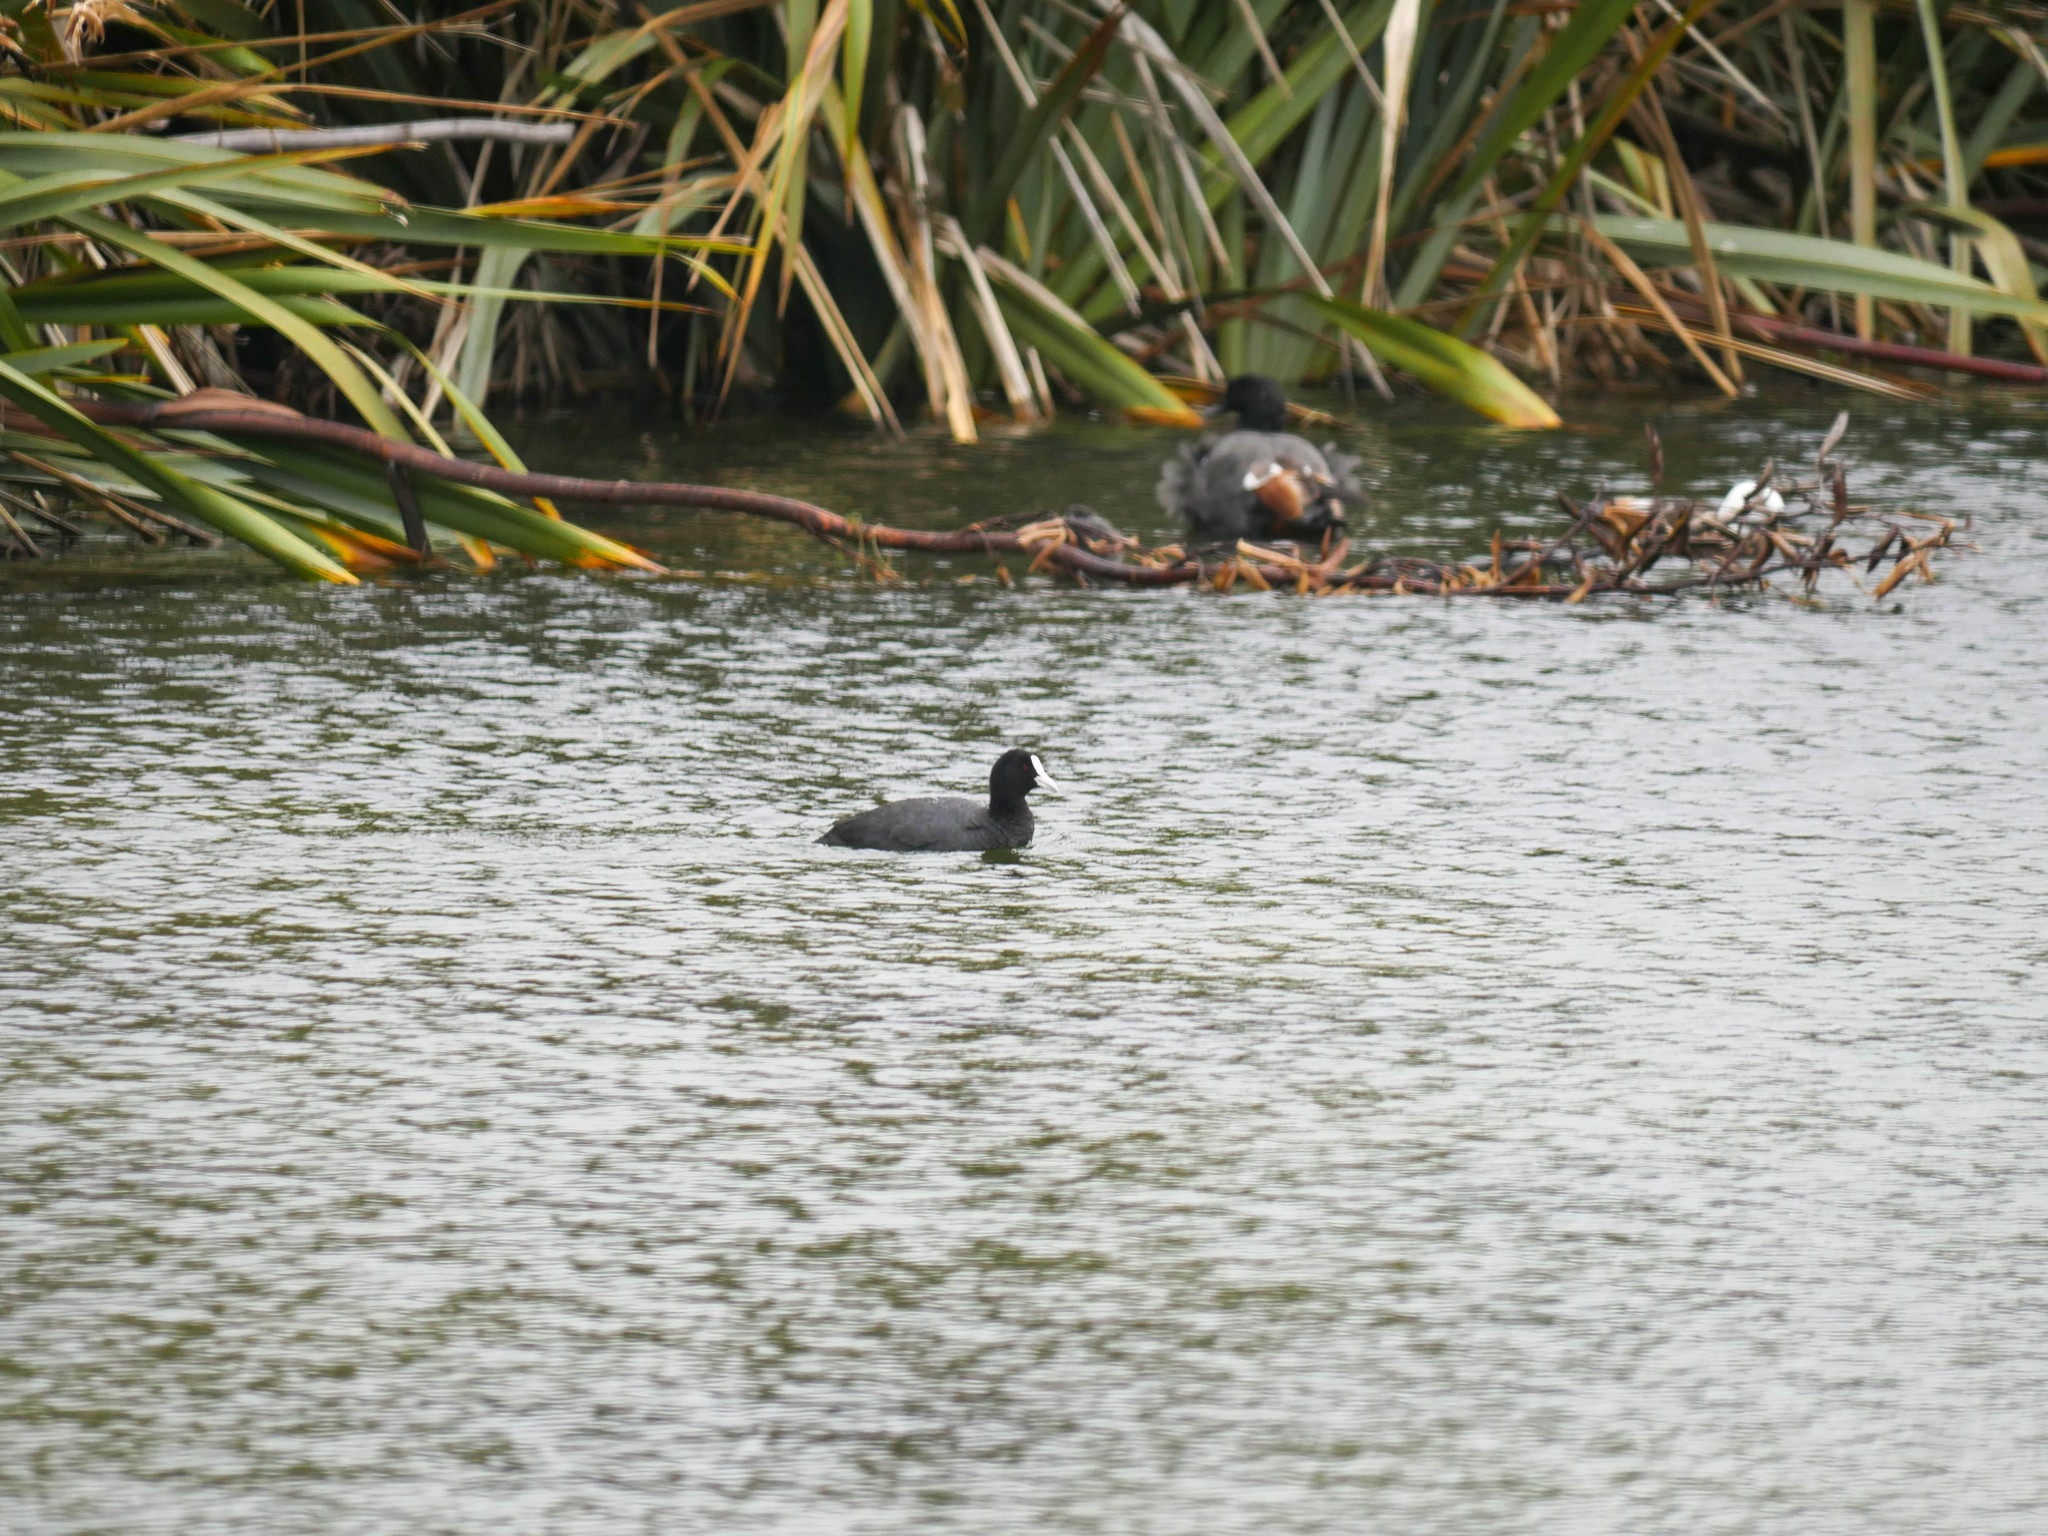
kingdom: Animalia
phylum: Chordata
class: Aves
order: Gruiformes
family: Rallidae
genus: Fulica
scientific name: Fulica atra
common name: Eurasian coot
